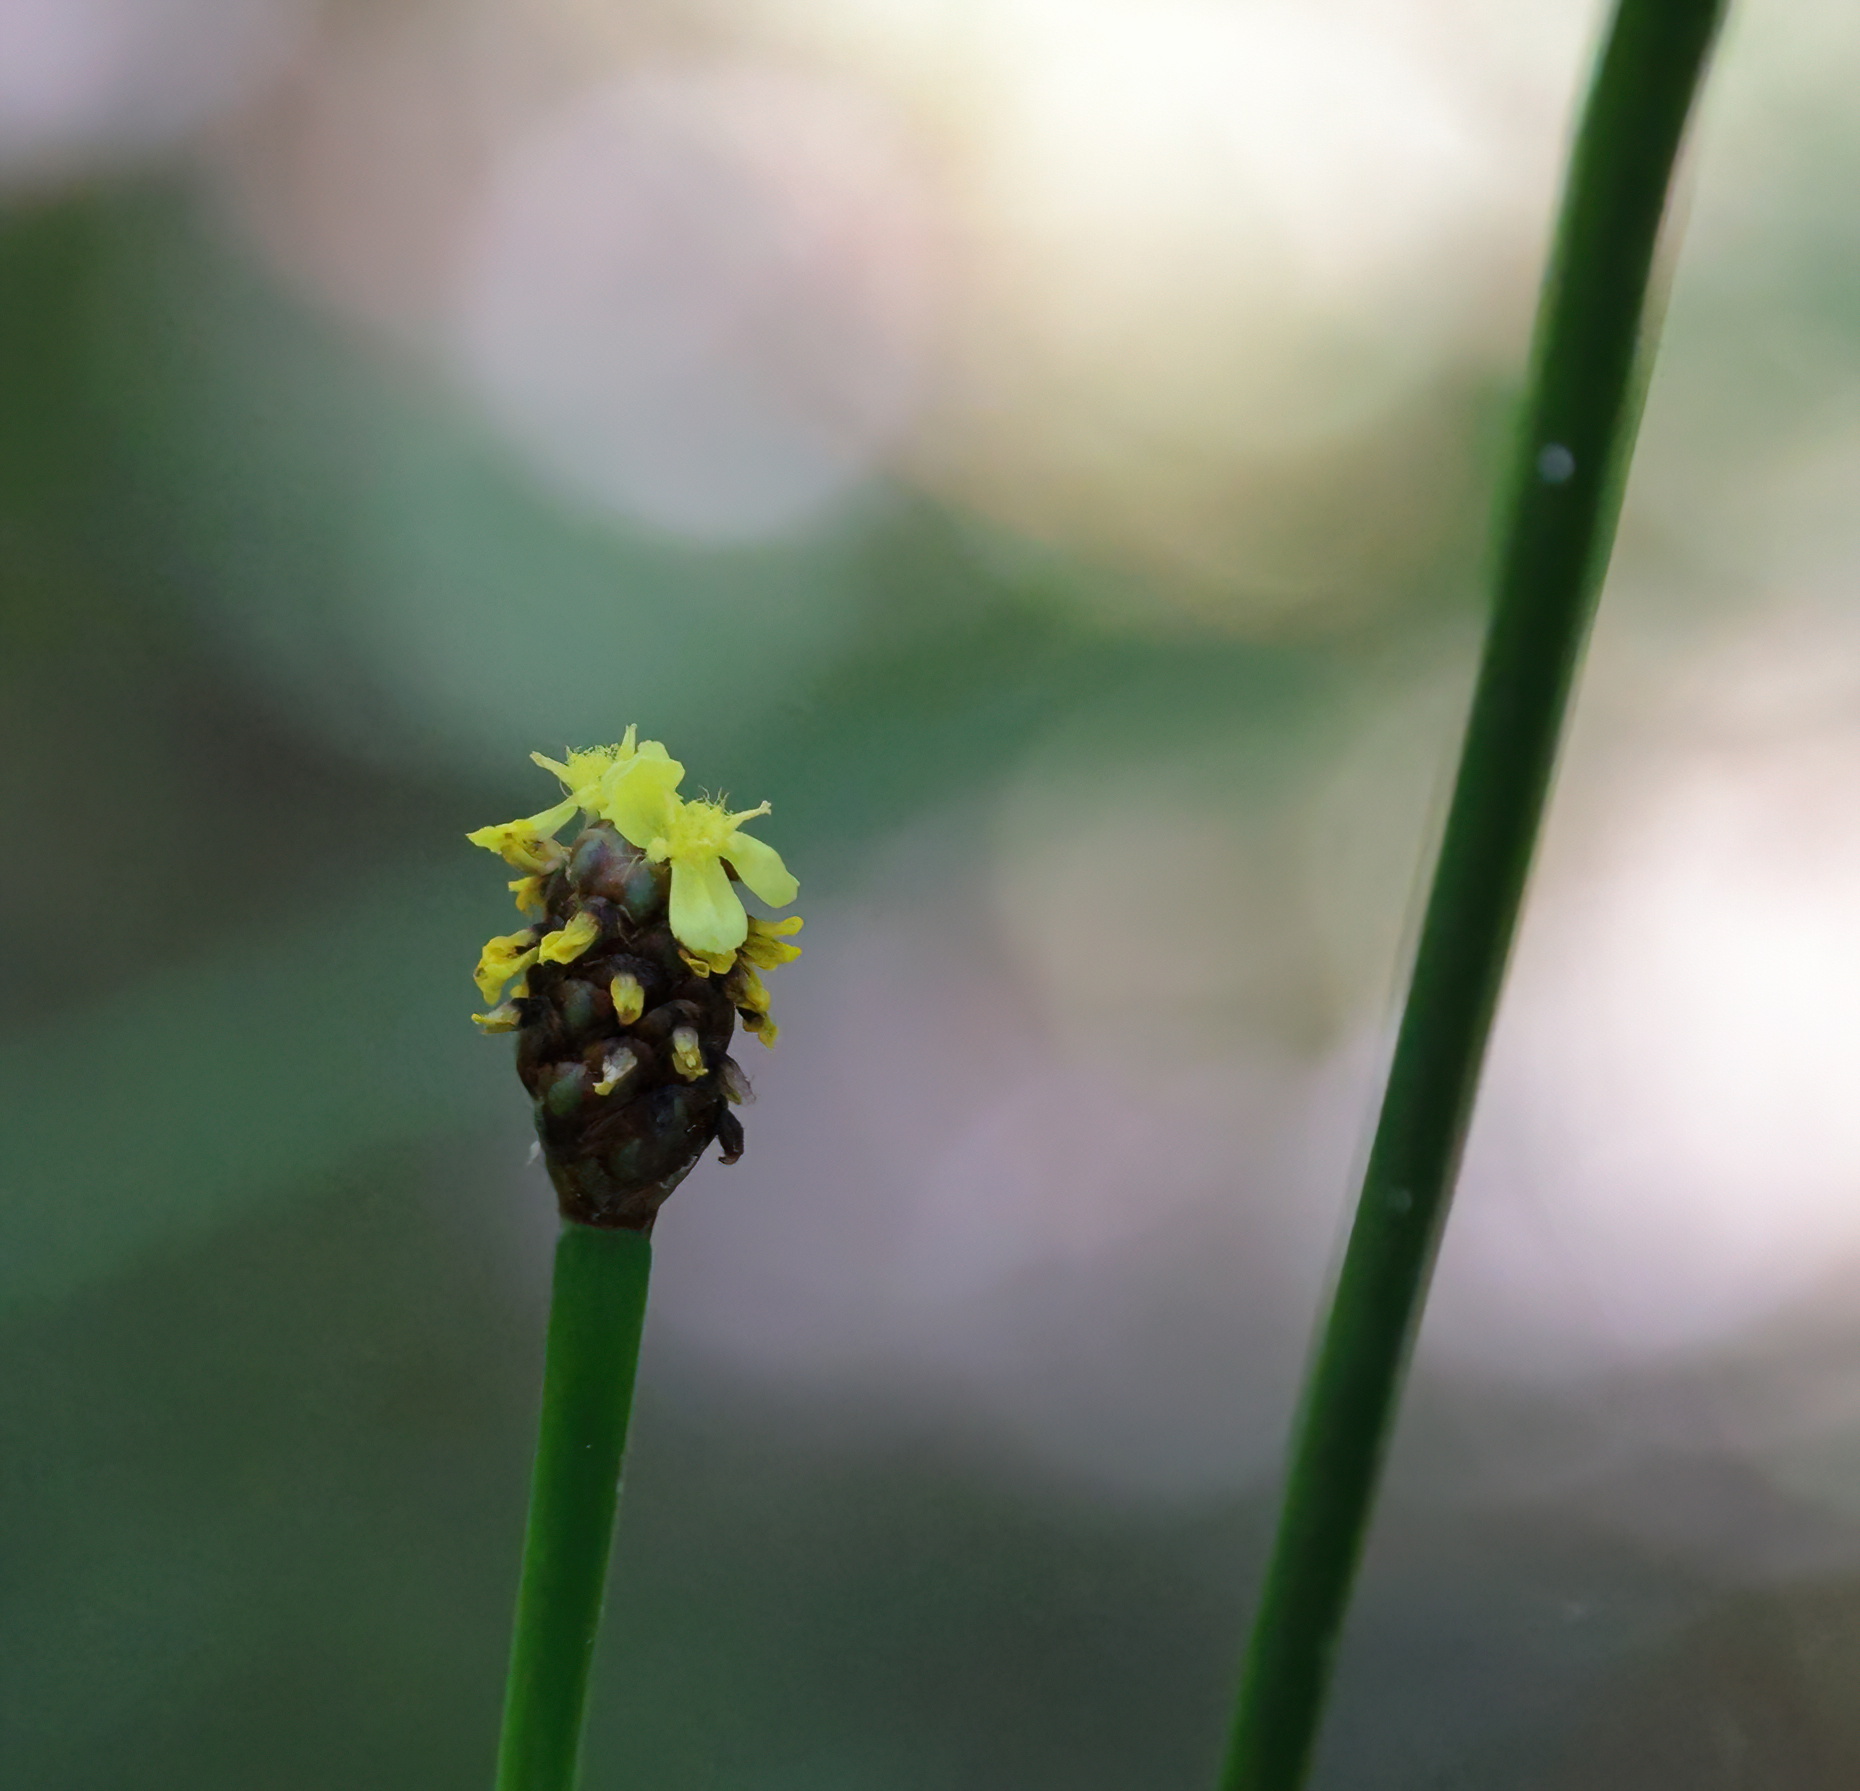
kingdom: Plantae
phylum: Tracheophyta
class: Liliopsida
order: Poales
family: Xyridaceae
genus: Xyris
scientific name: Xyris laxifolia
